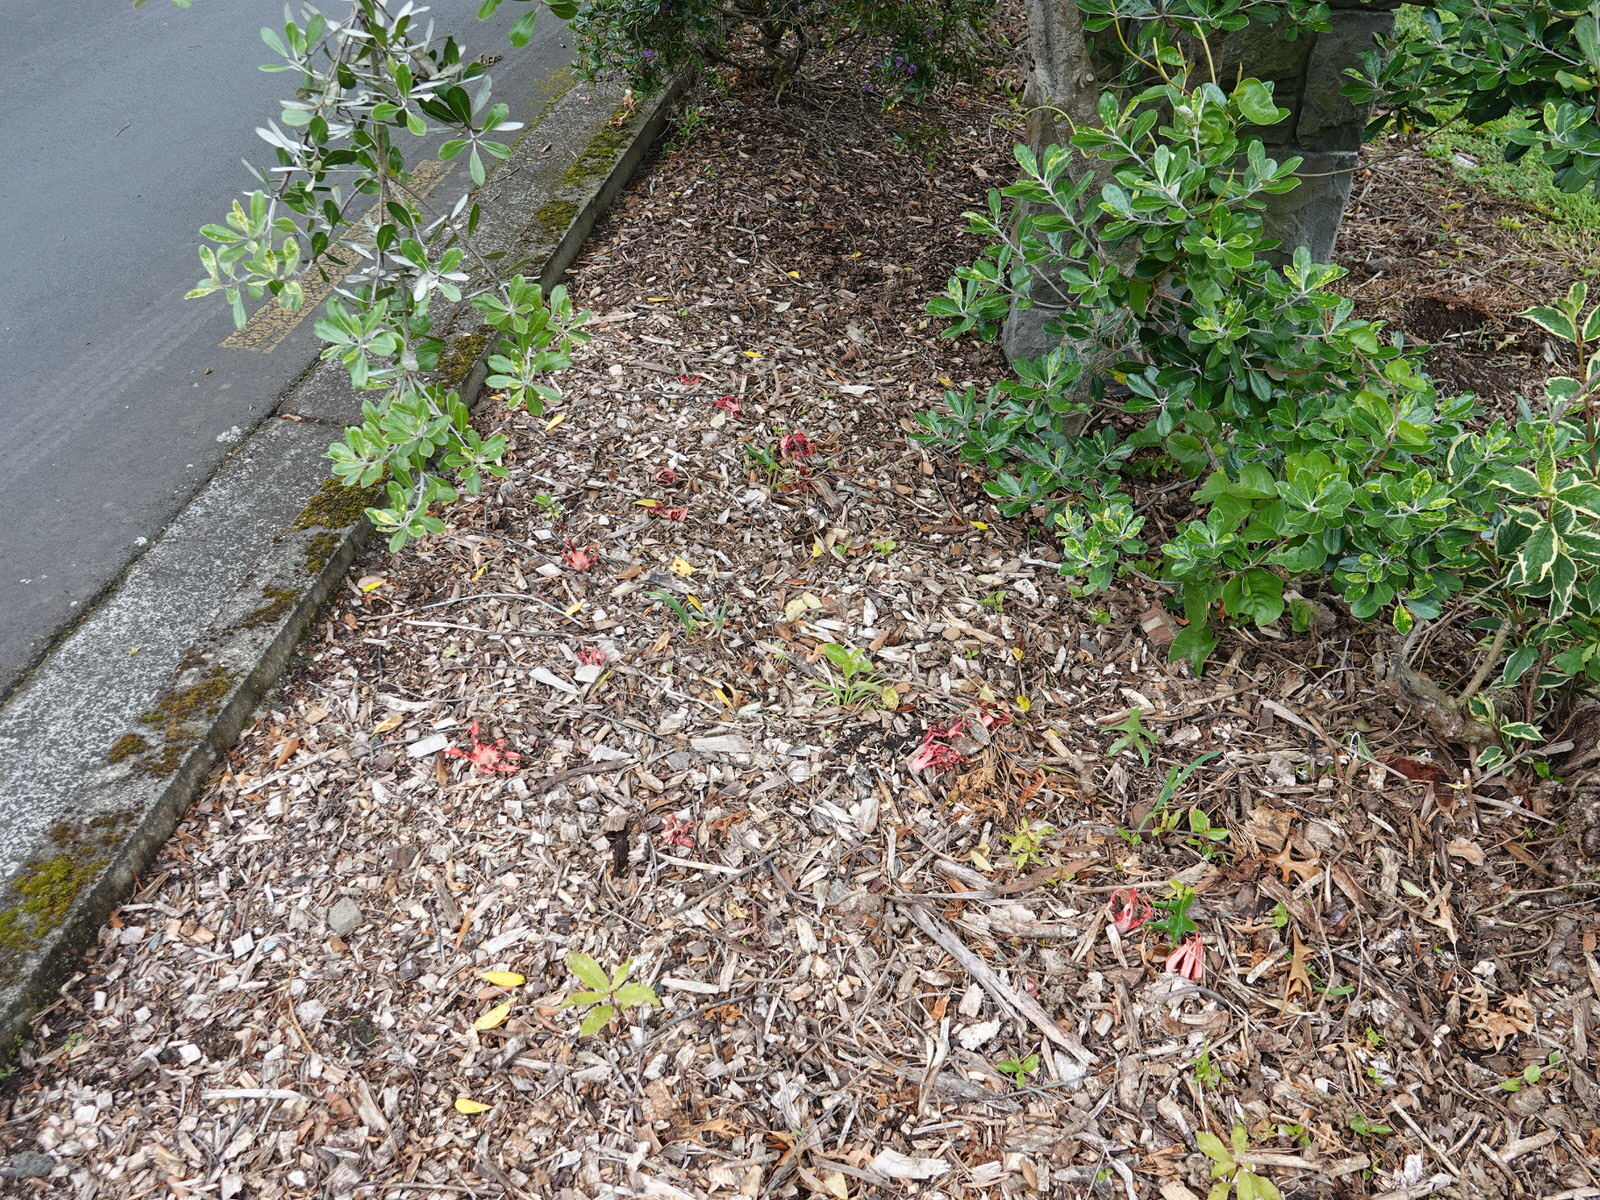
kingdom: Fungi
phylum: Basidiomycota
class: Agaricomycetes
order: Phallales
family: Phallaceae
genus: Clathrus
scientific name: Clathrus archeri
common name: Devil's fingers
